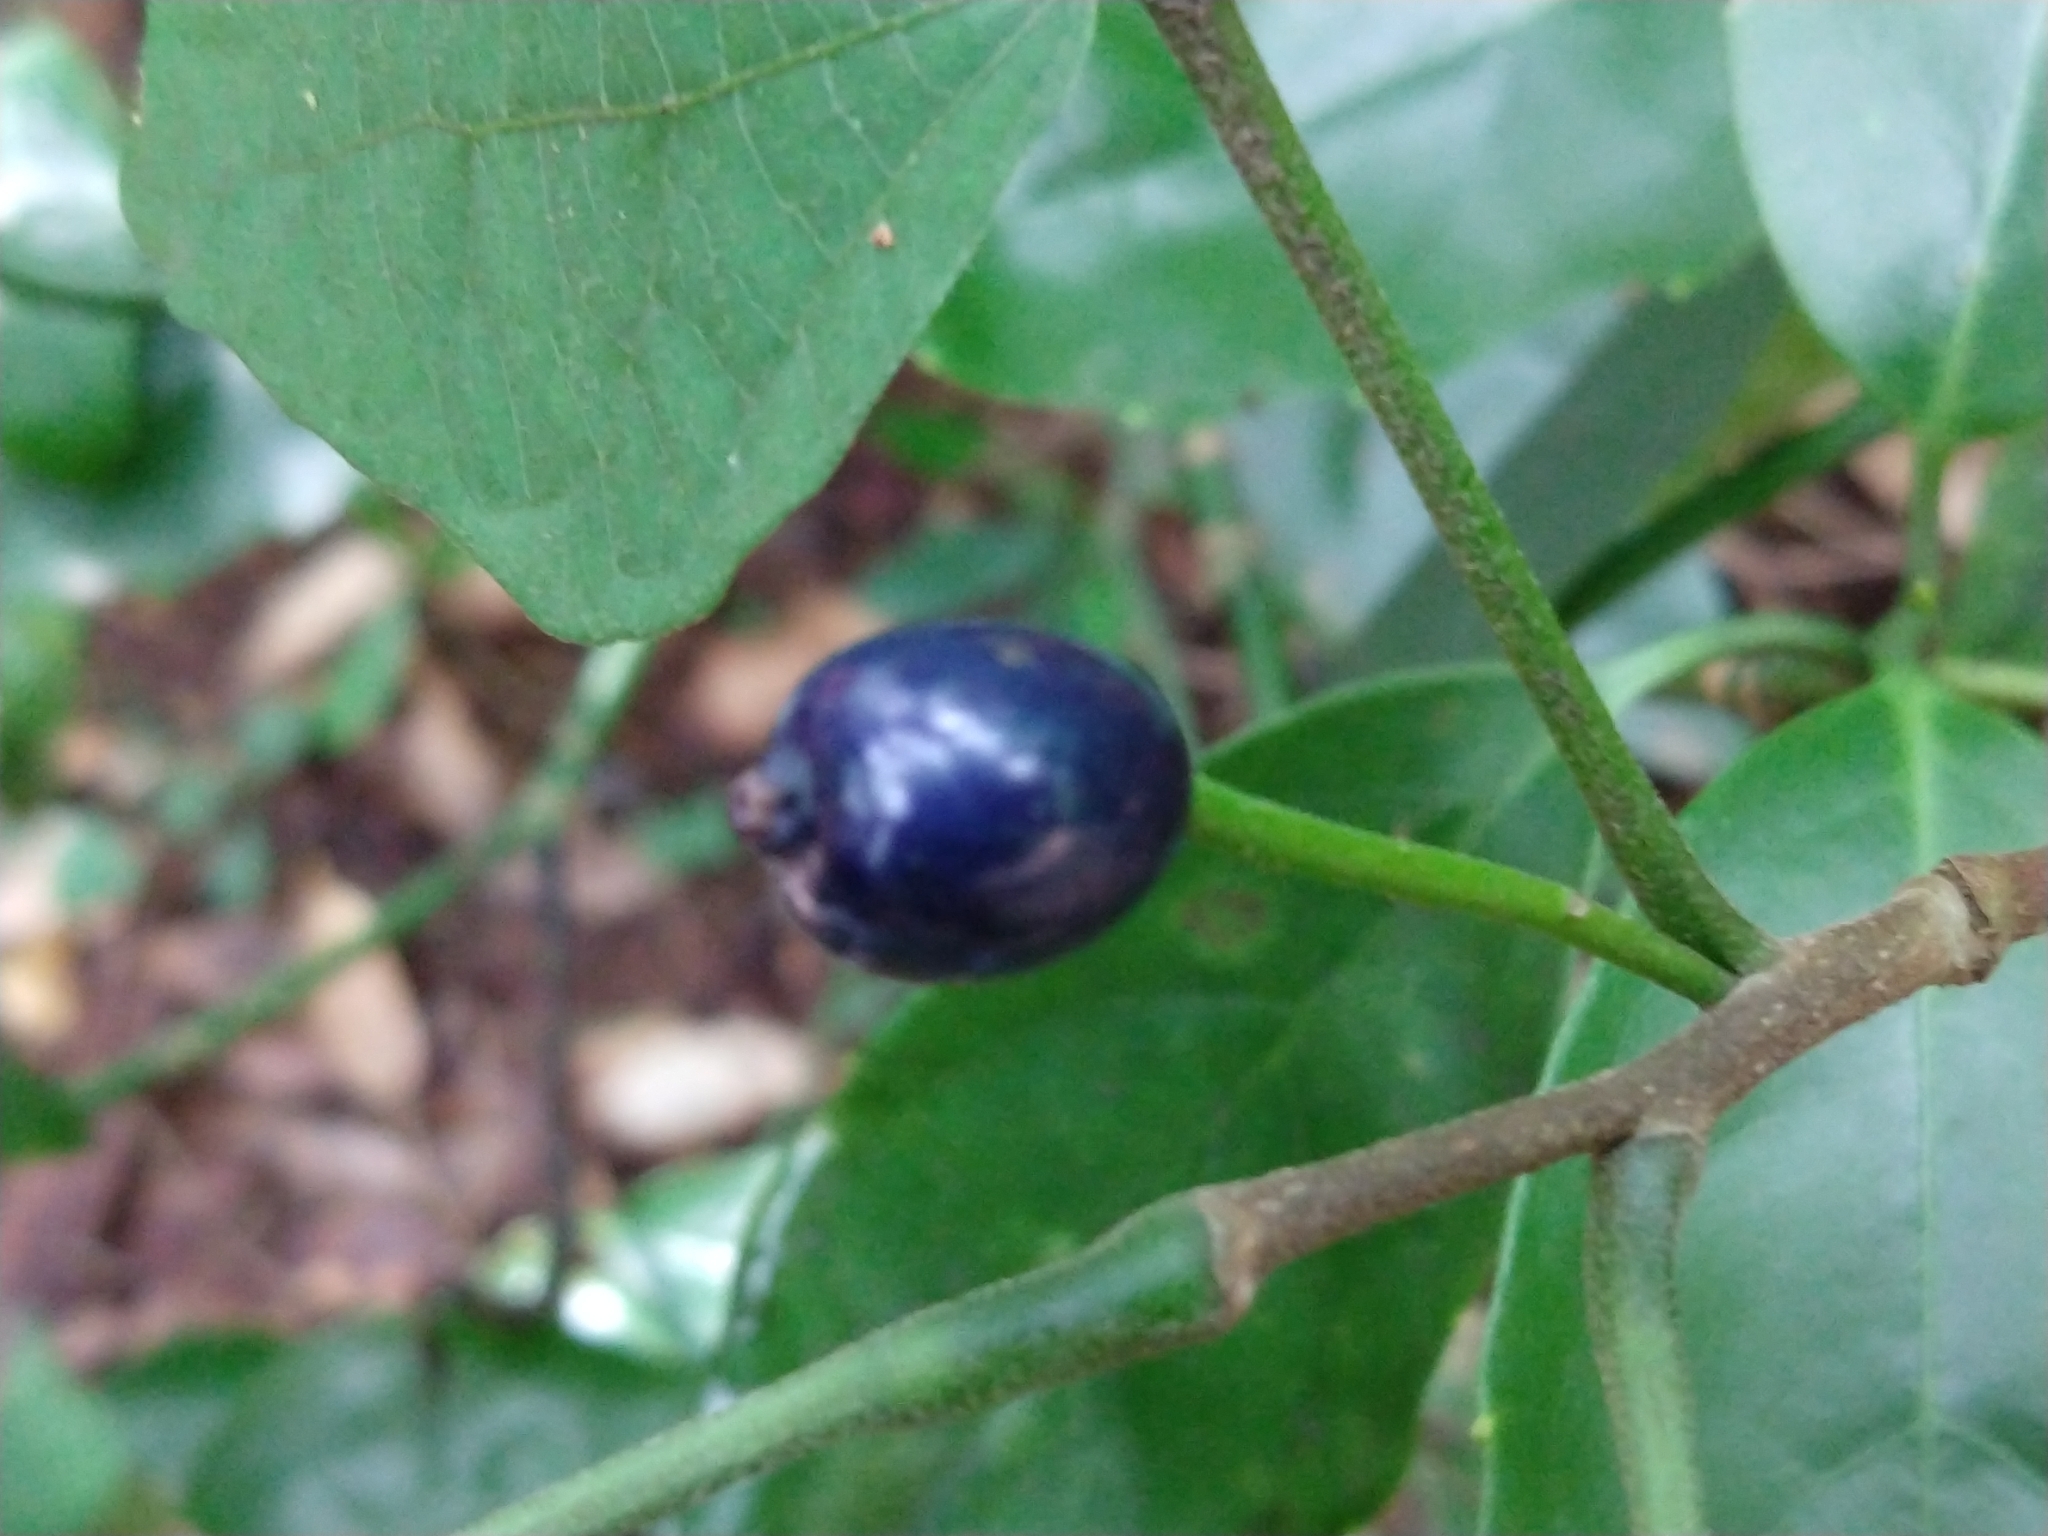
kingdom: Plantae
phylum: Tracheophyta
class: Magnoliopsida
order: Cornales
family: Cornaceae
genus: Alangium
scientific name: Alangium platanifolium
